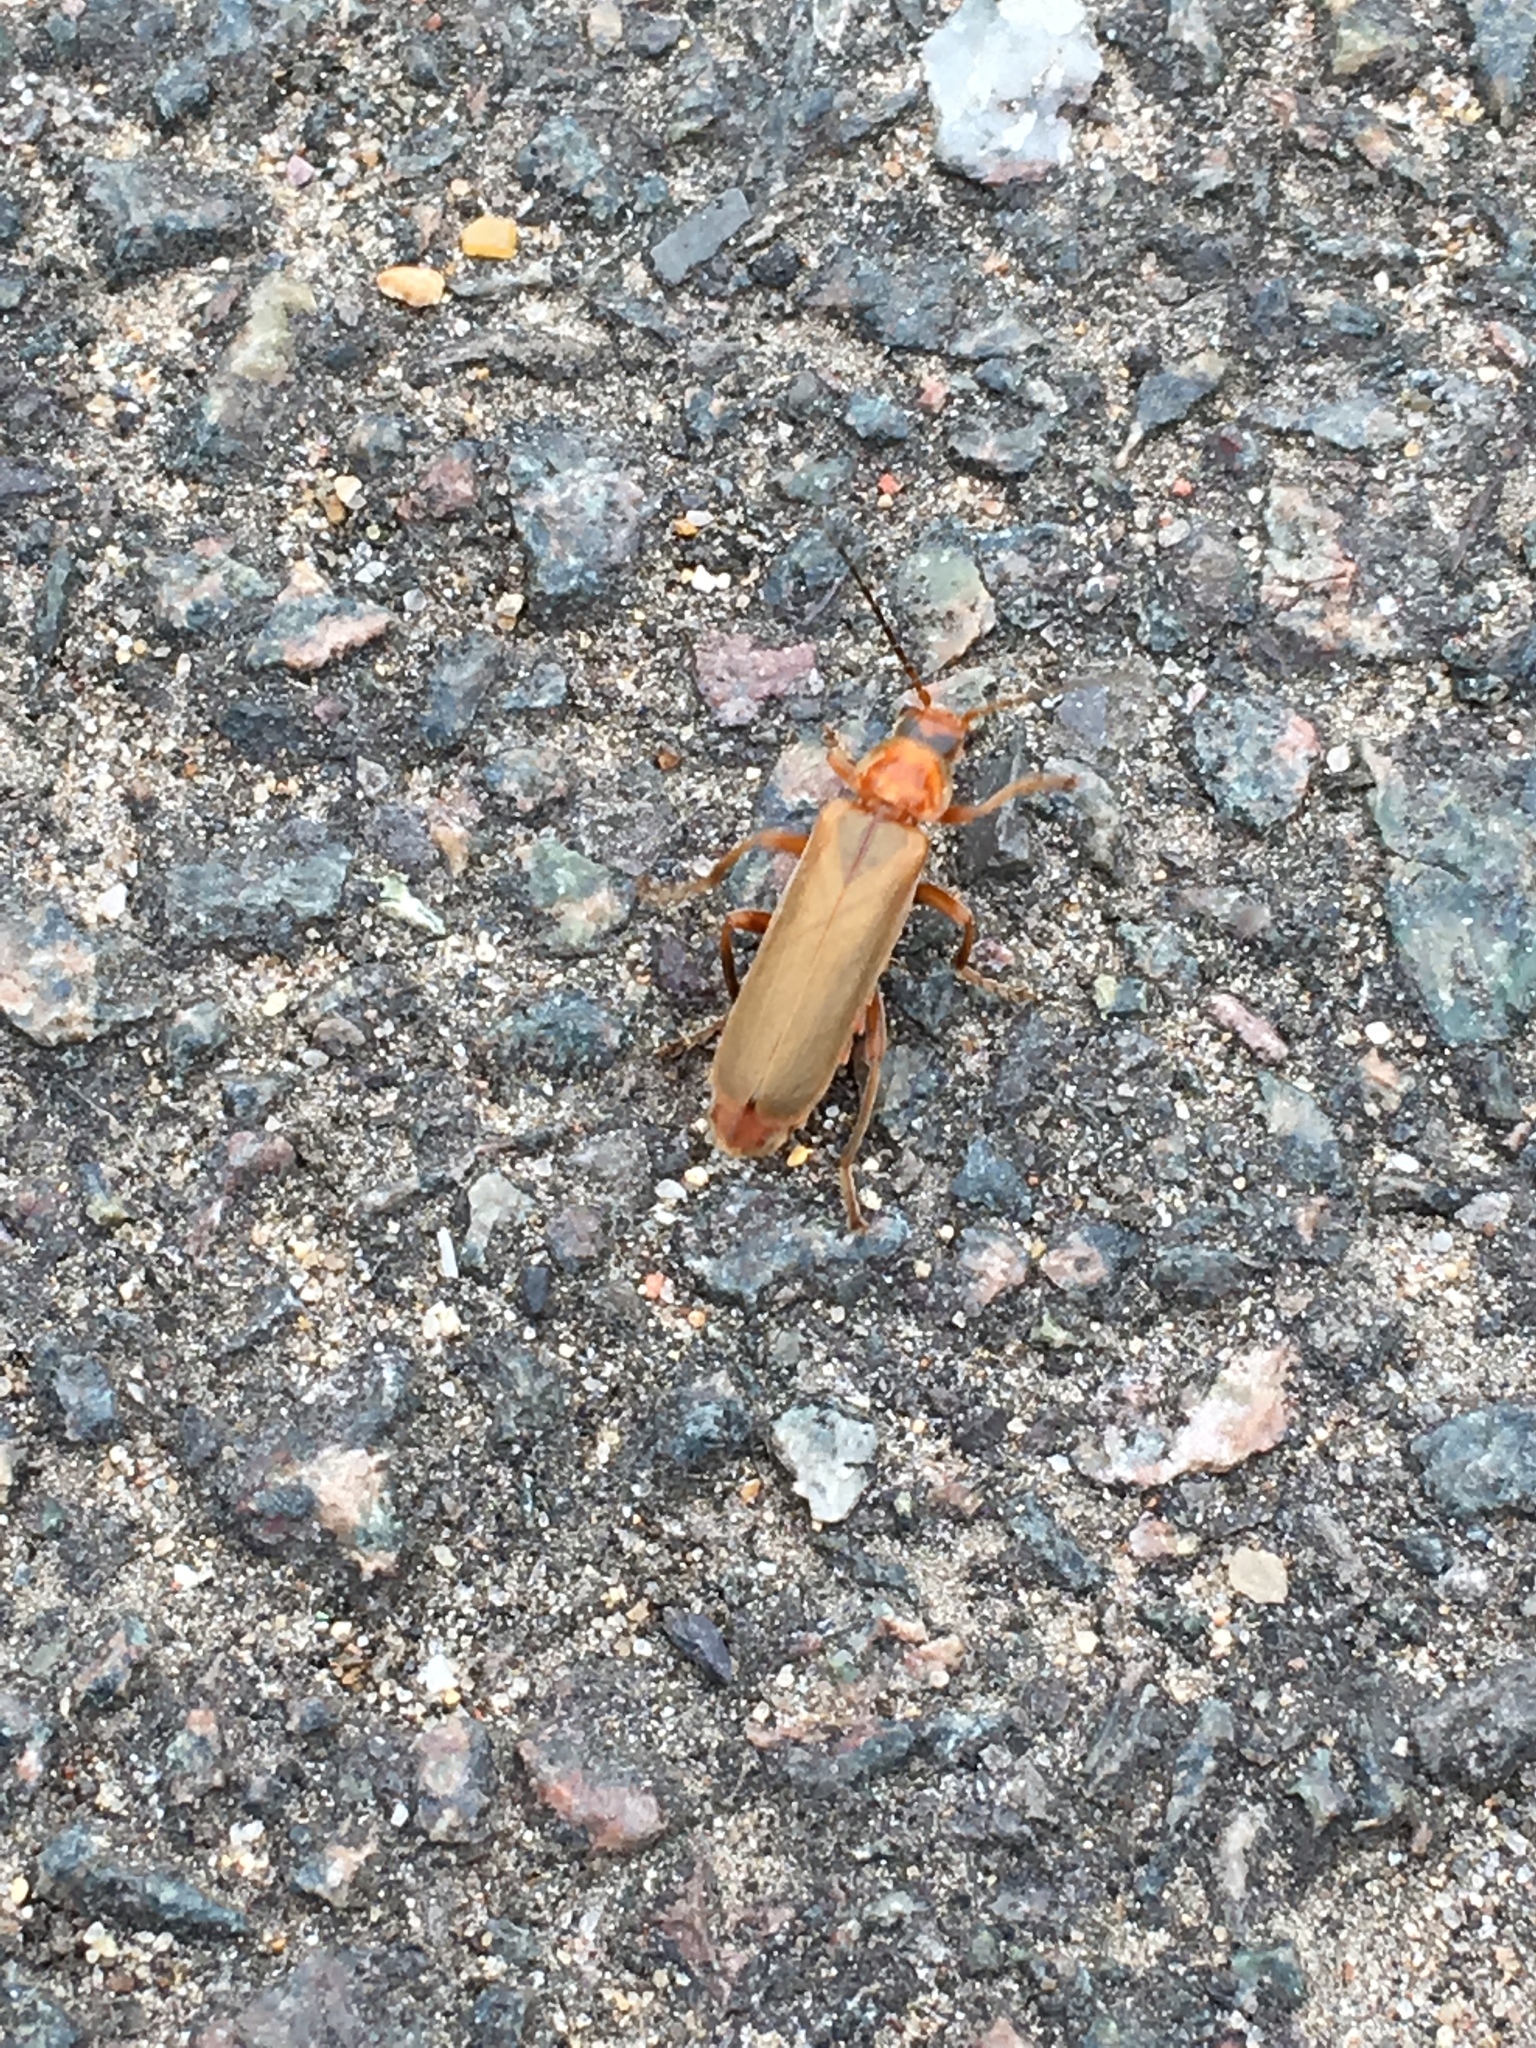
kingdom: Animalia
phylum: Arthropoda
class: Insecta
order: Coleoptera
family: Cantharidae
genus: Cantharis
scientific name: Cantharis rufa
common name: Red-spotted soldier beetle
